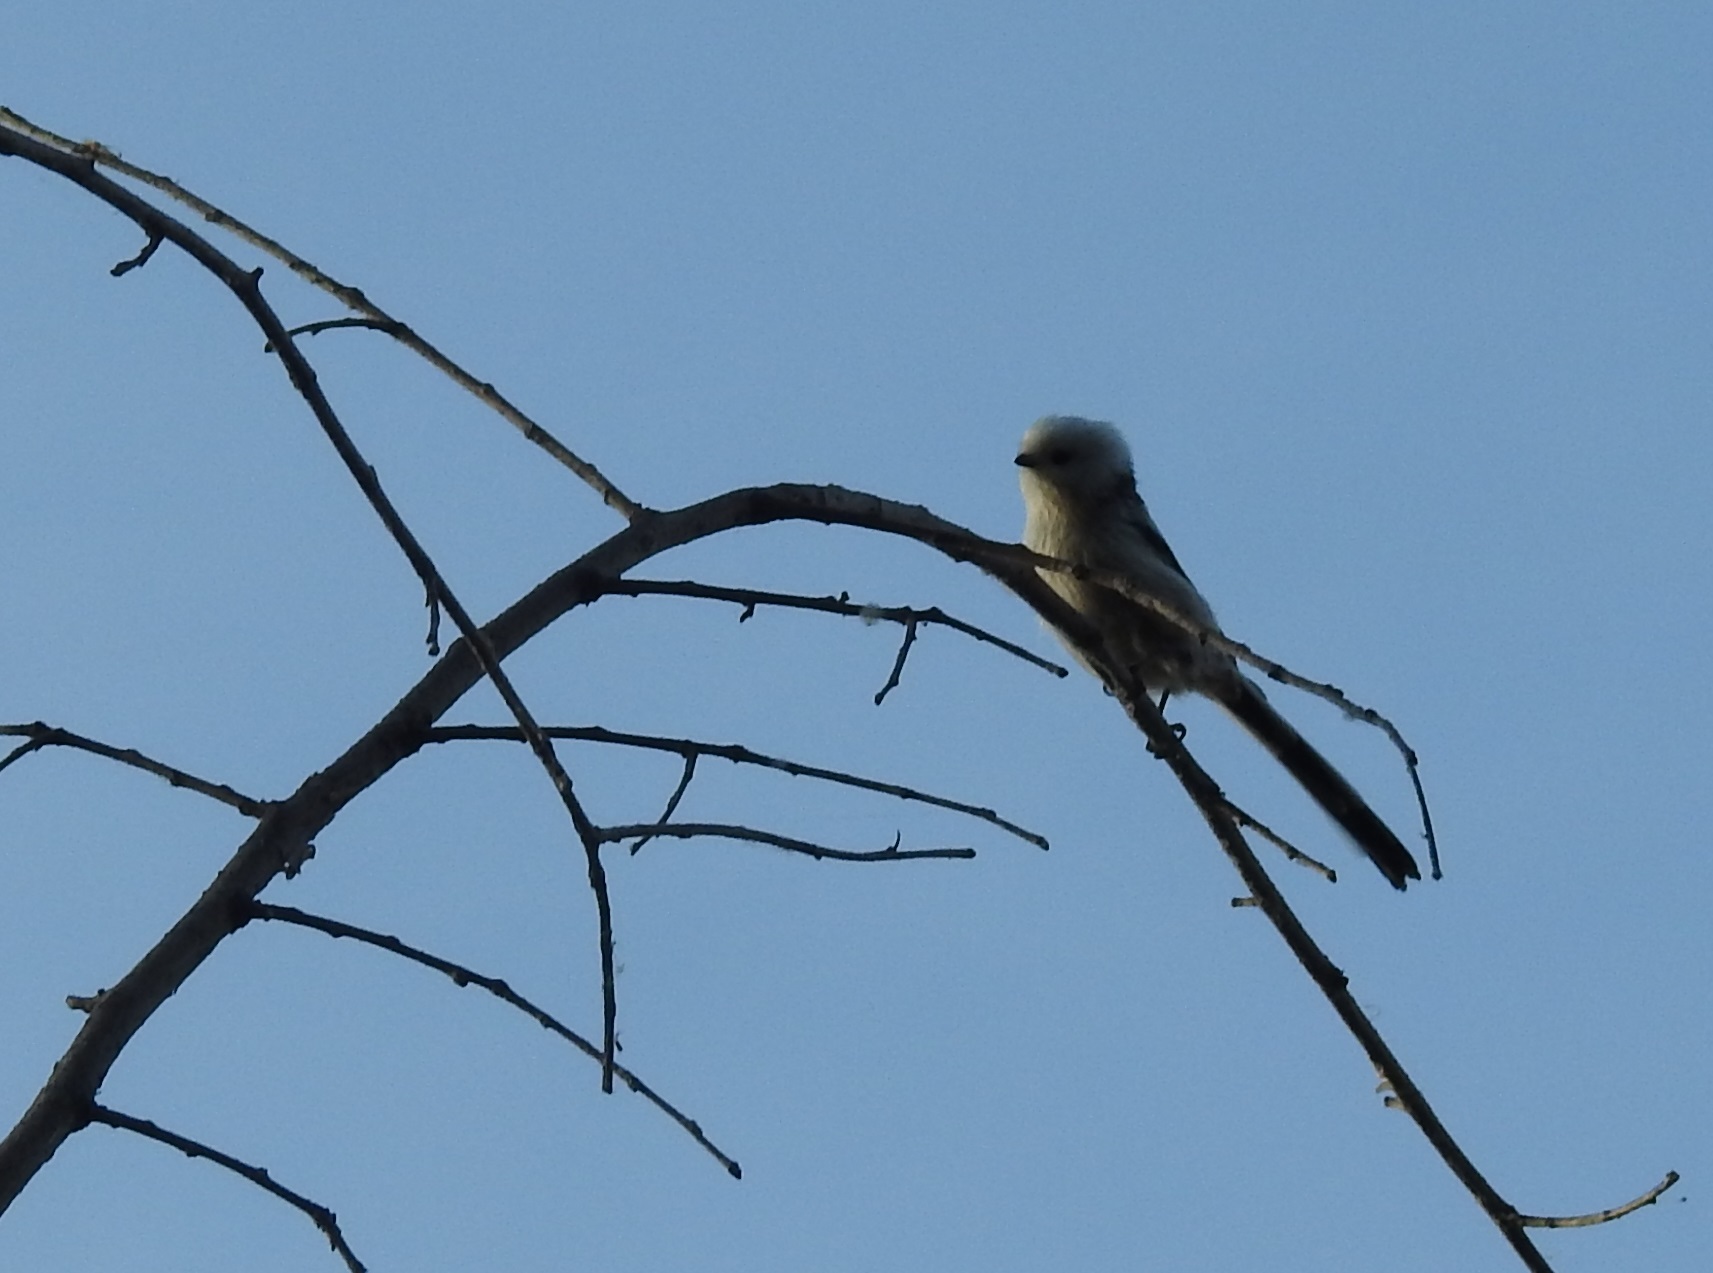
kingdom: Animalia
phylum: Chordata
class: Aves
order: Passeriformes
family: Aegithalidae
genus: Aegithalos
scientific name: Aegithalos caudatus
